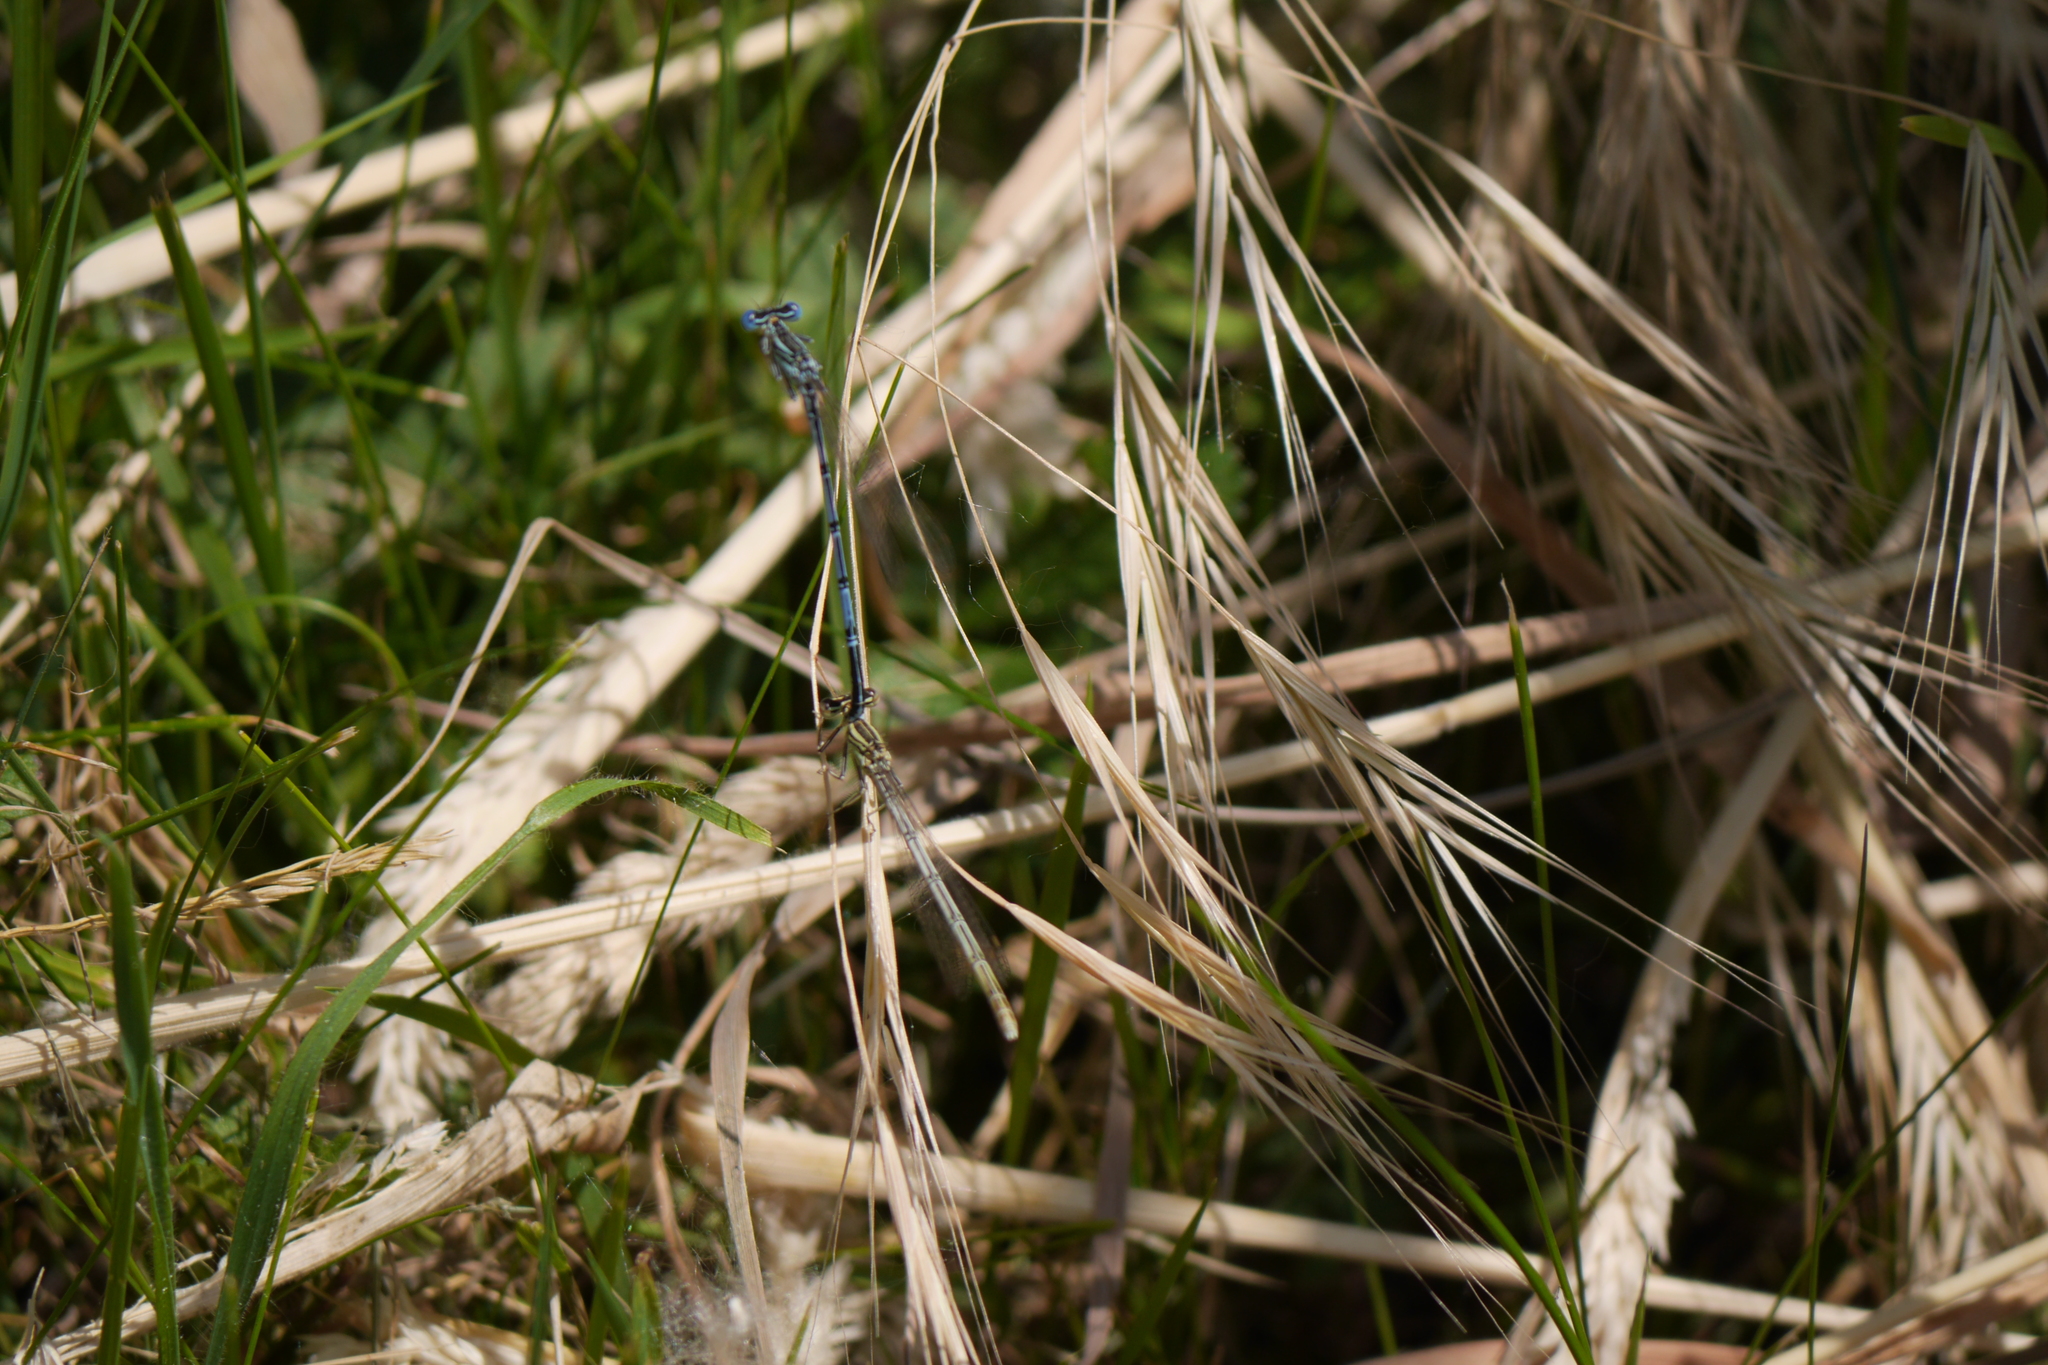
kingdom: Animalia
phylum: Arthropoda
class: Insecta
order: Odonata
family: Platycnemididae
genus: Platycnemis
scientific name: Platycnemis pennipes
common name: White-legged damselfly
